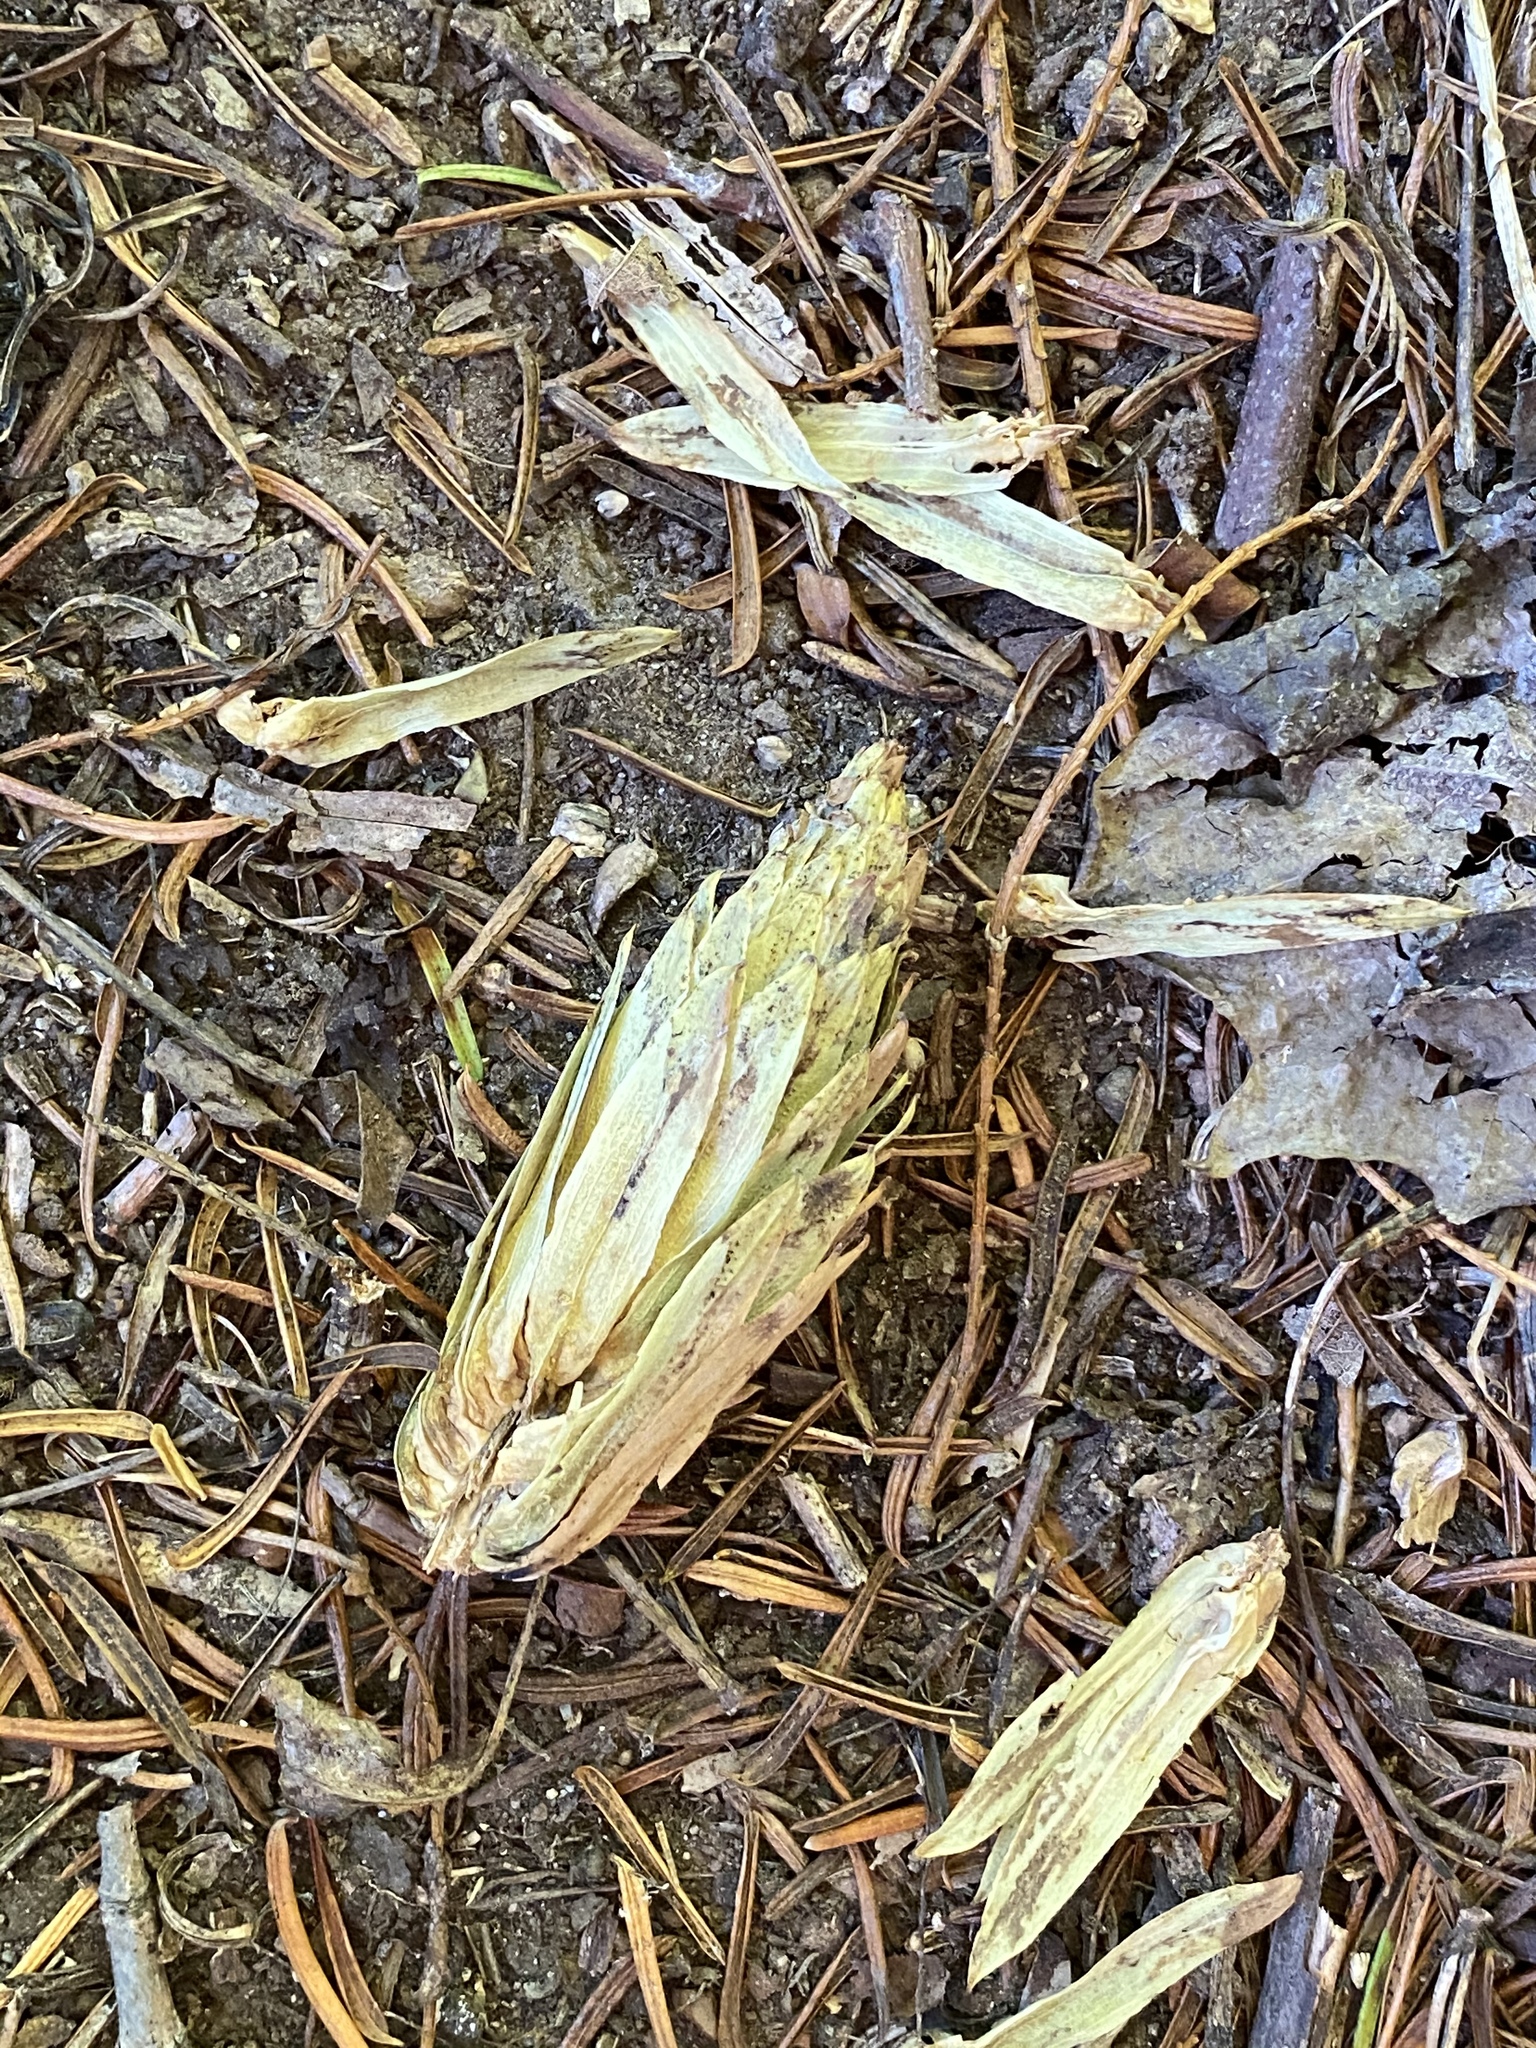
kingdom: Plantae
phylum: Tracheophyta
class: Magnoliopsida
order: Magnoliales
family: Magnoliaceae
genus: Liriodendron
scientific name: Liriodendron tulipifera
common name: Tulip tree
